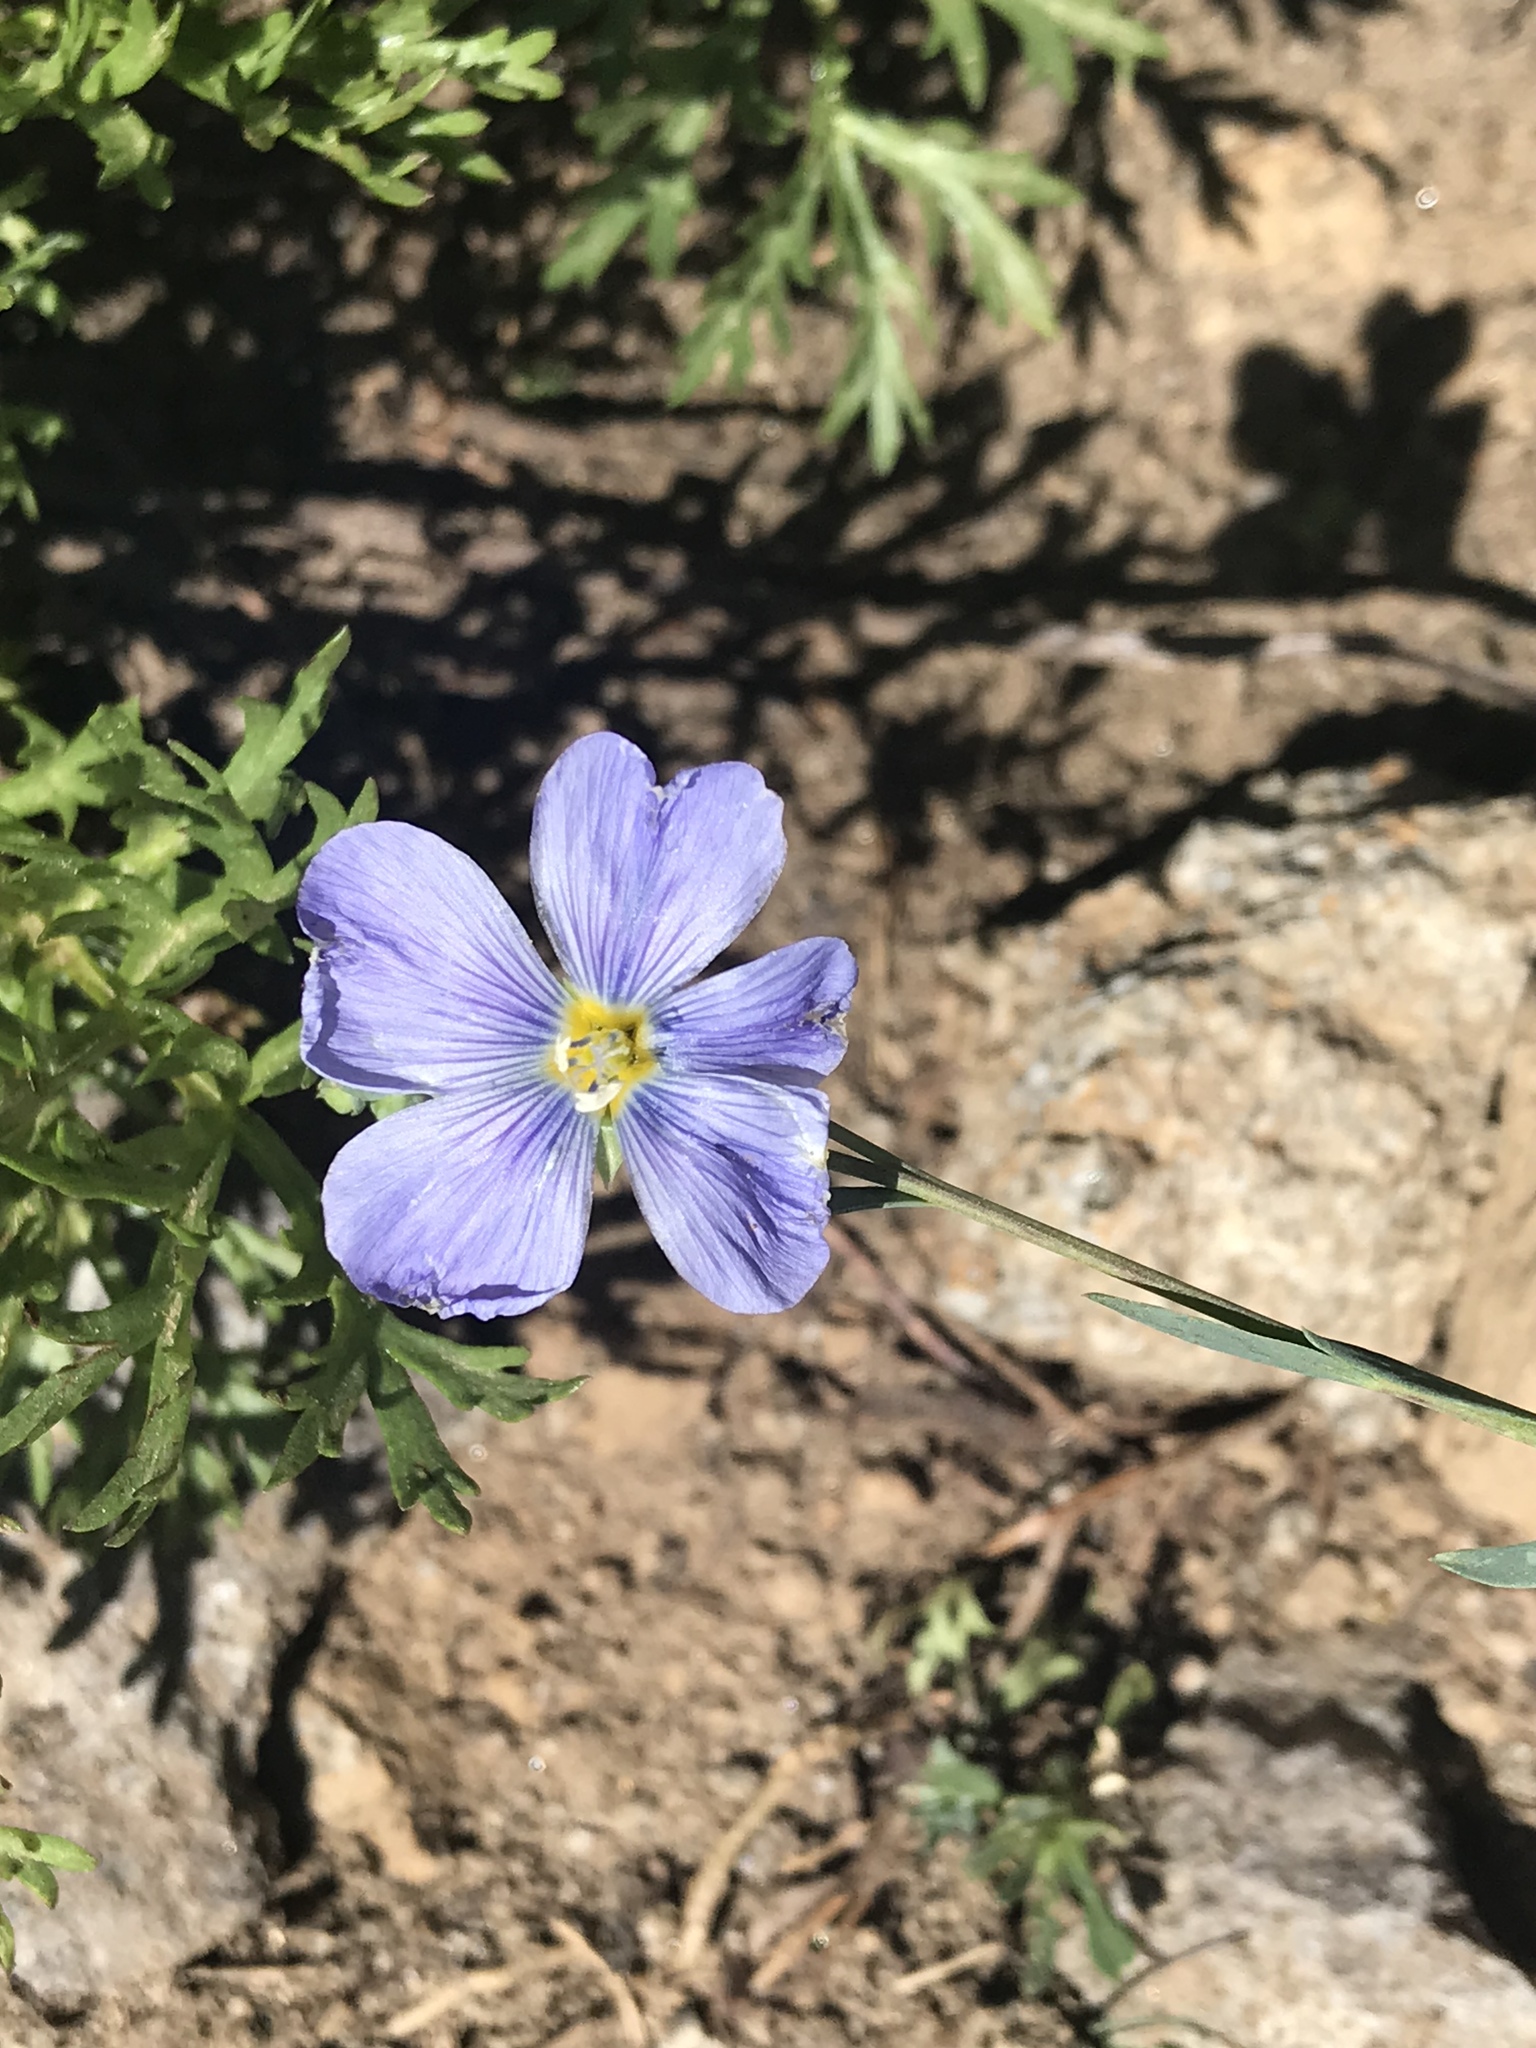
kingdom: Plantae
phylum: Tracheophyta
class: Magnoliopsida
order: Malpighiales
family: Linaceae
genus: Linum
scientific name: Linum lewisii
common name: Prairie flax
